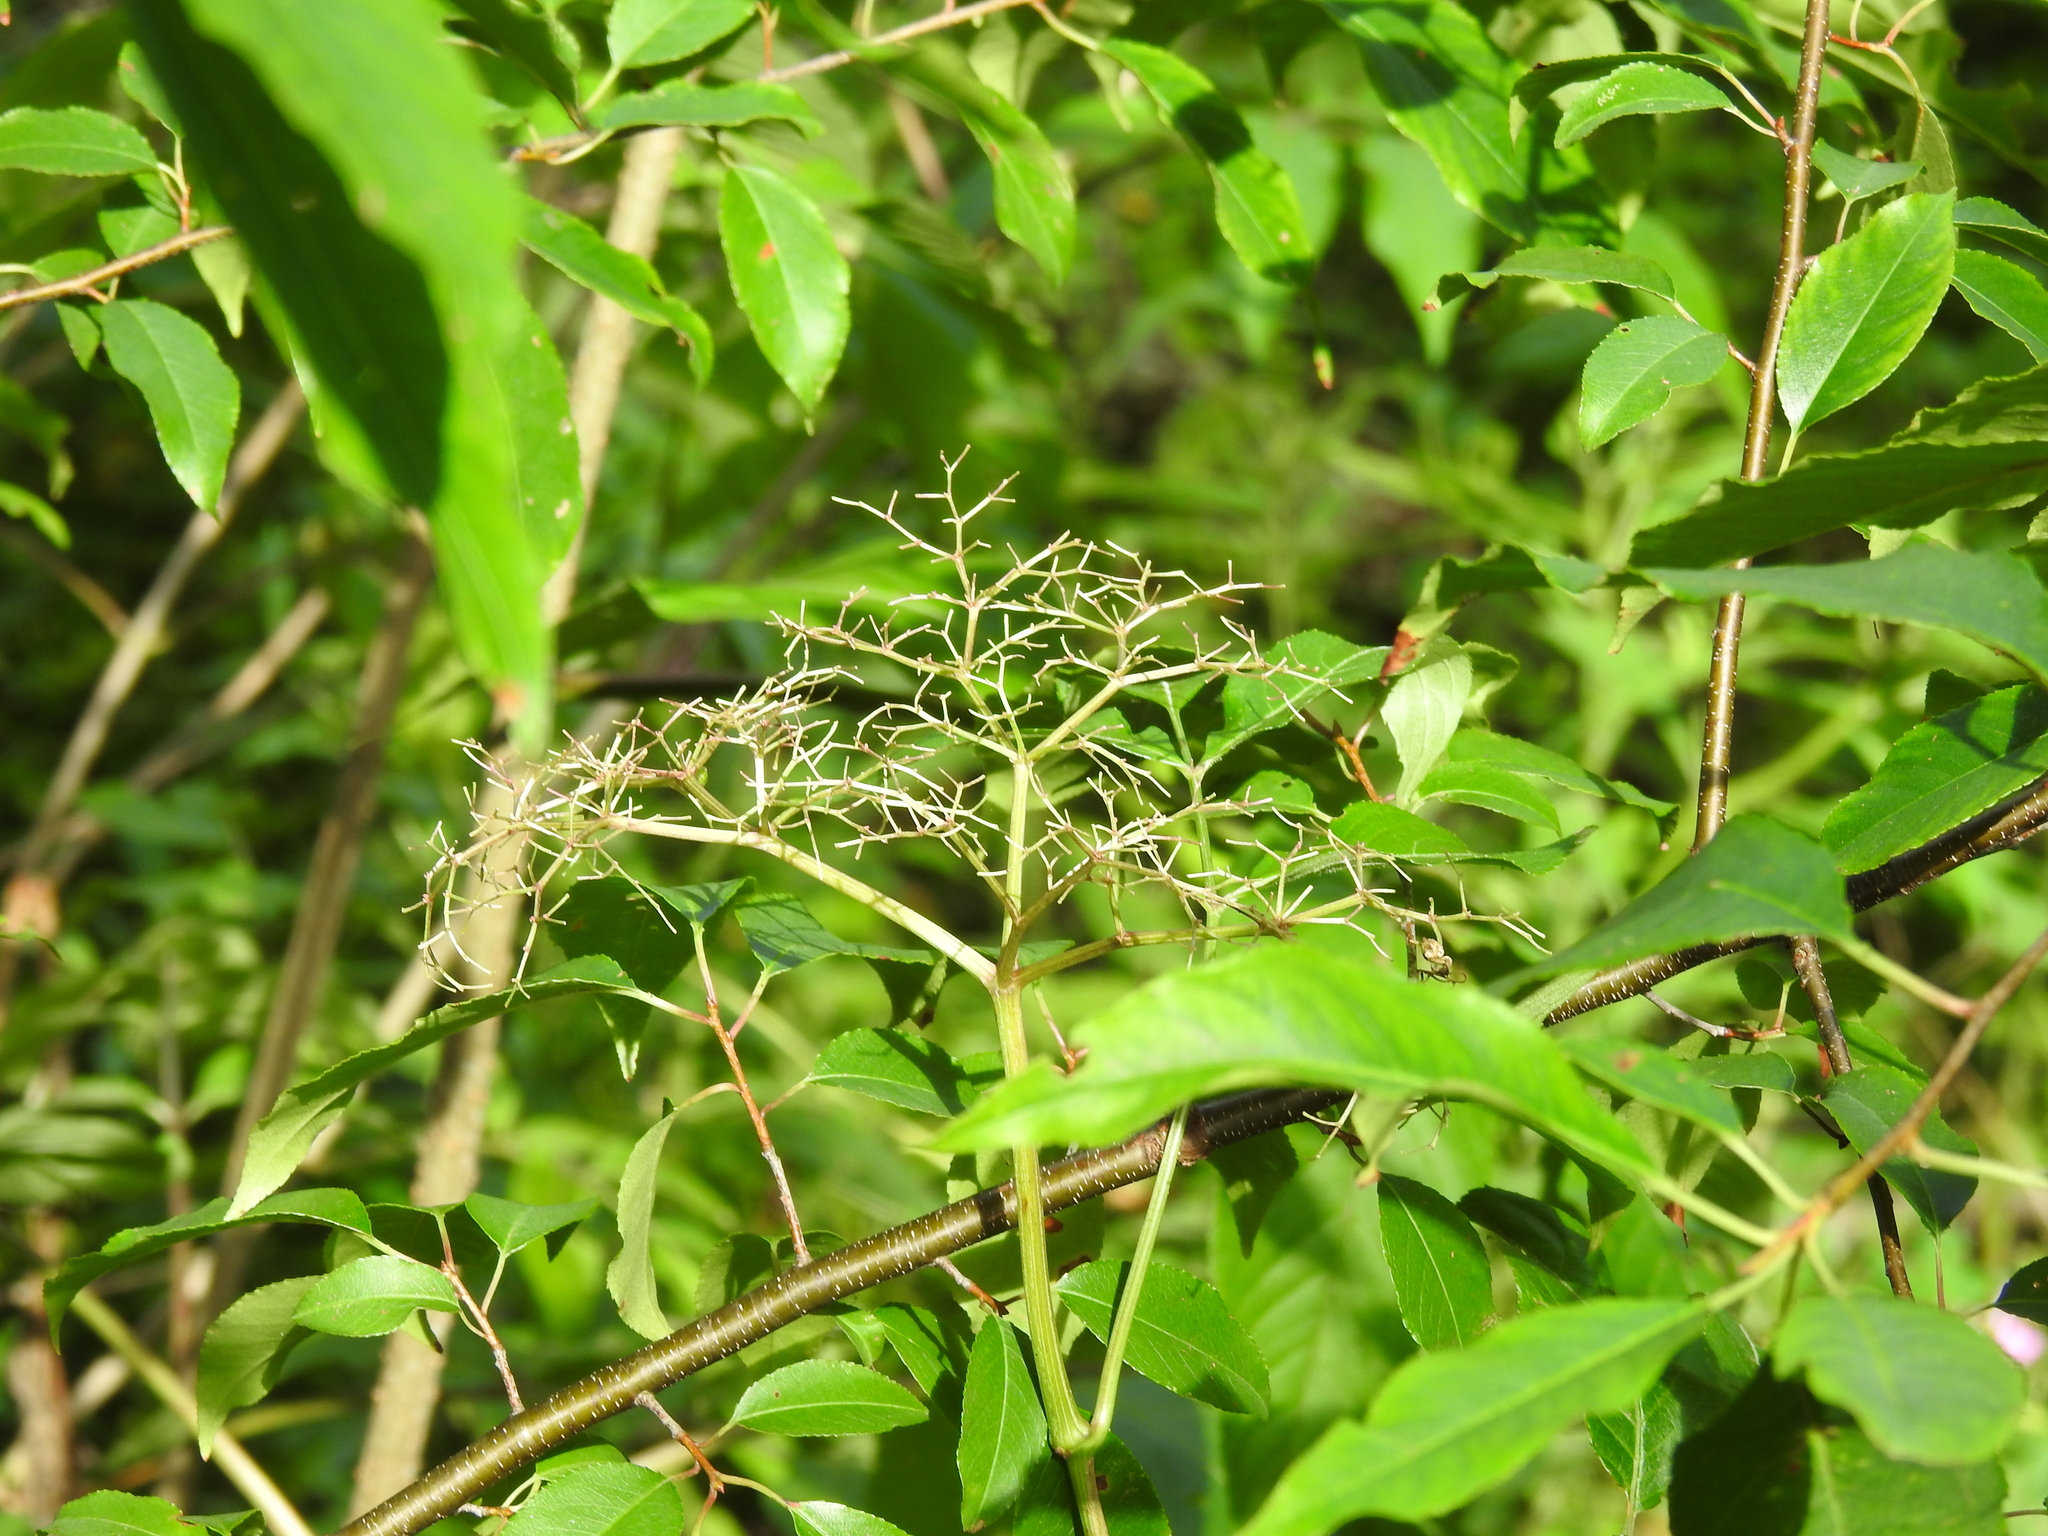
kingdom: Plantae
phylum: Tracheophyta
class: Magnoliopsida
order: Dipsacales
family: Viburnaceae
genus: Sambucus
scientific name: Sambucus canadensis
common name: American elder
